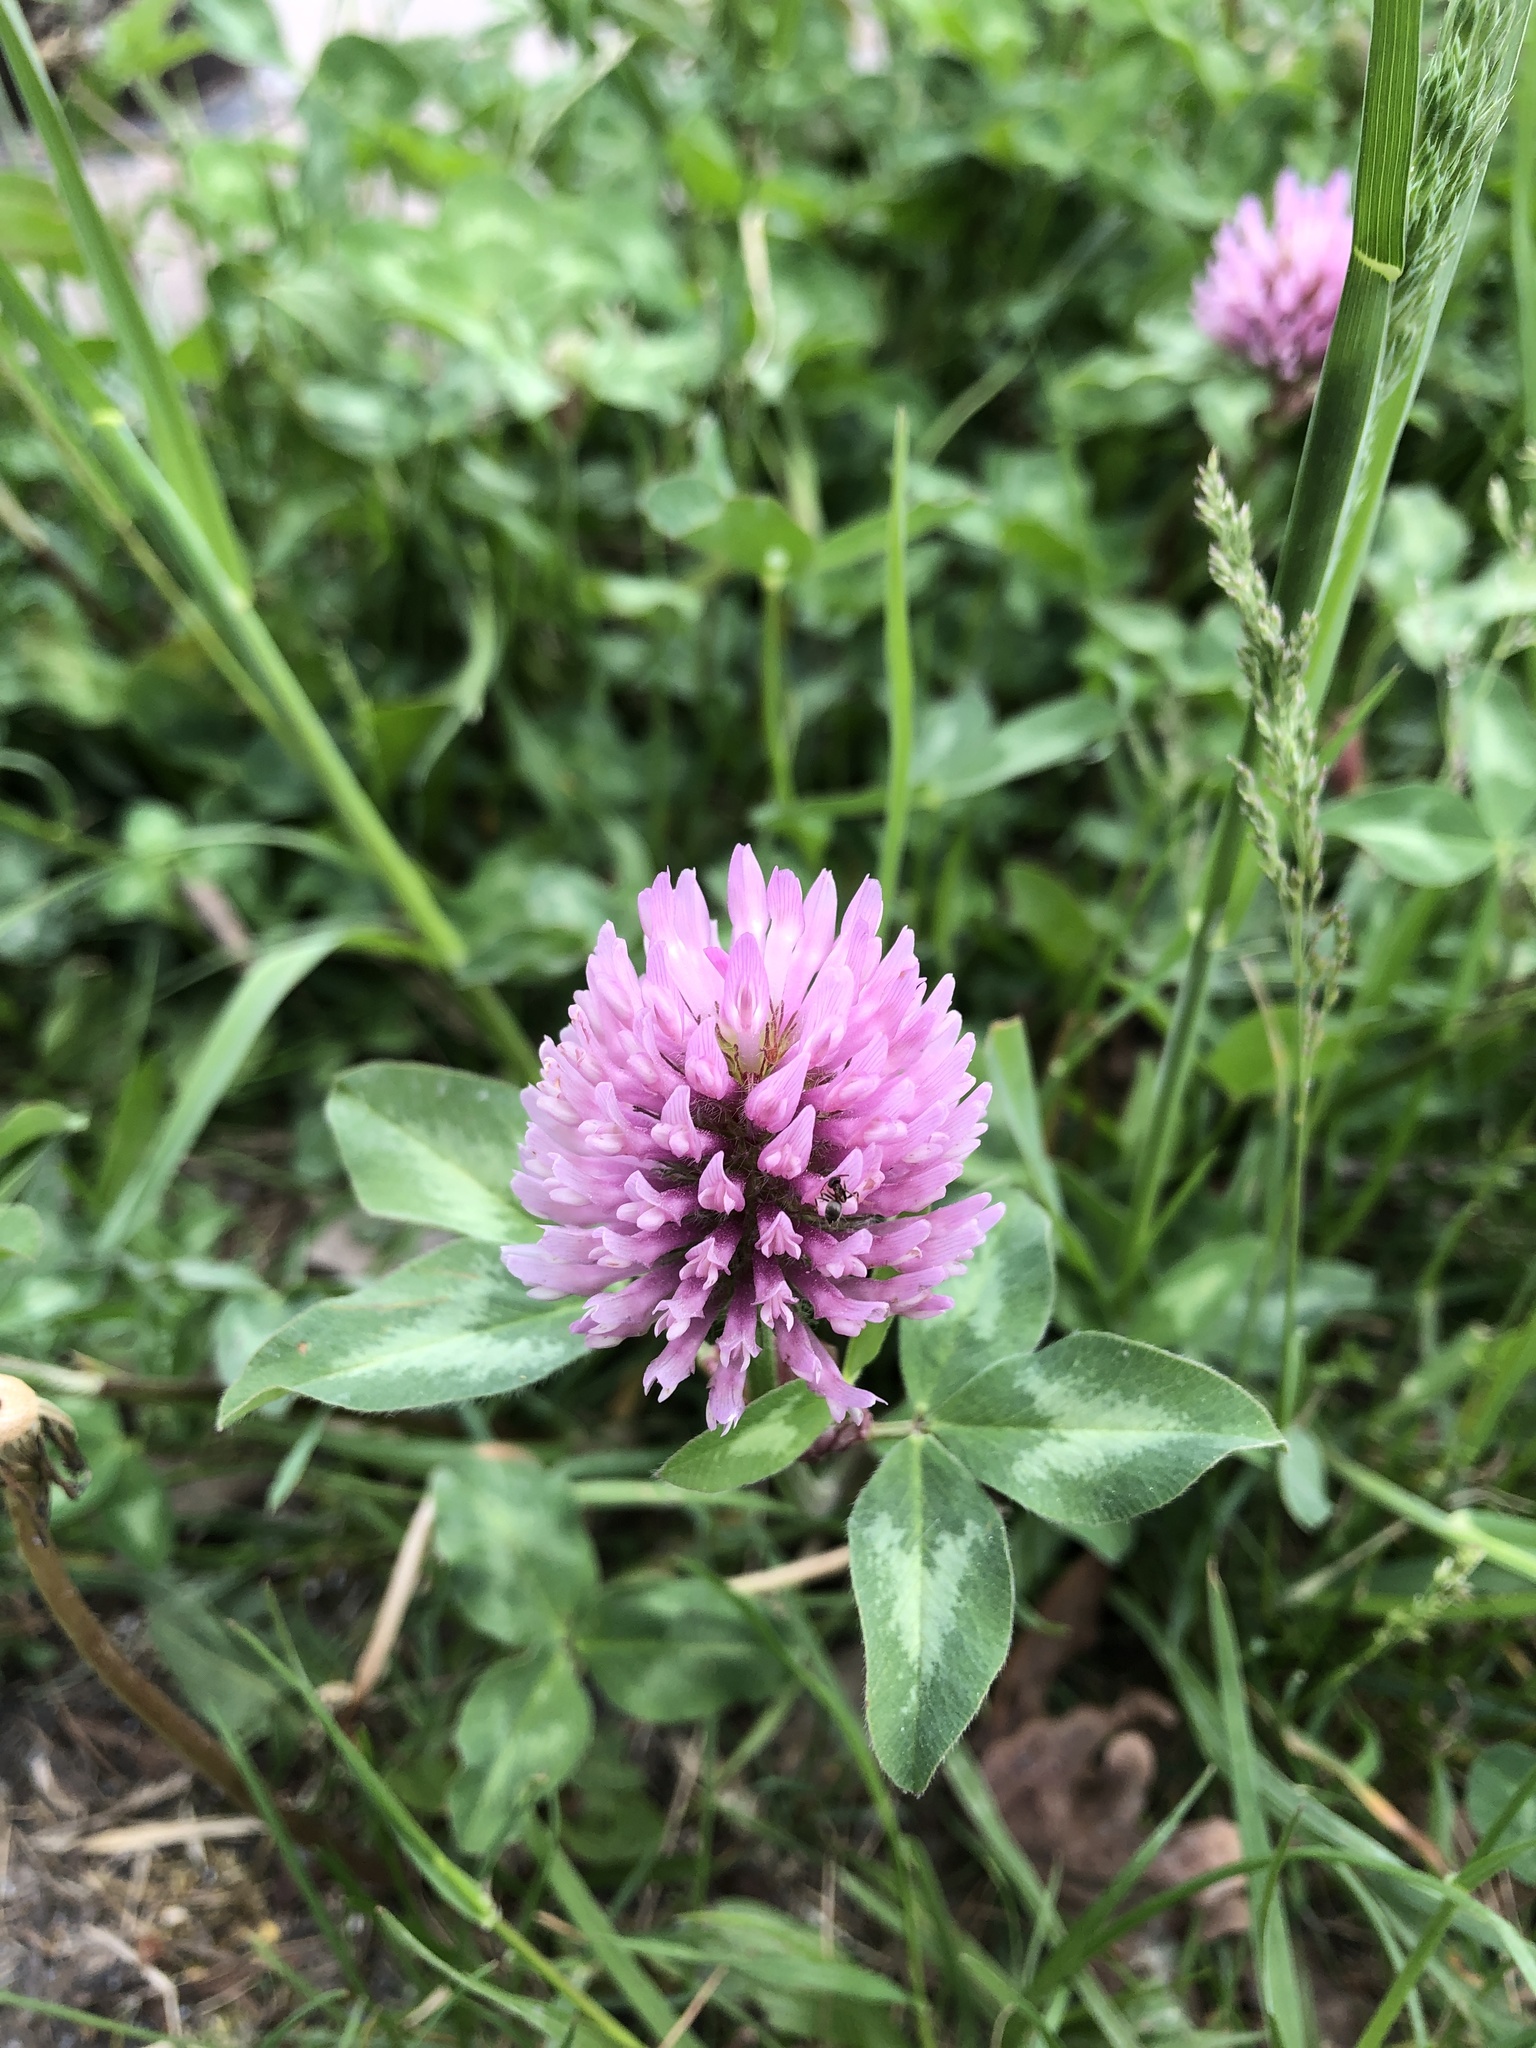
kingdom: Plantae
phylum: Tracheophyta
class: Magnoliopsida
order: Fabales
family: Fabaceae
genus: Trifolium
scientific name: Trifolium pratense
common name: Red clover
